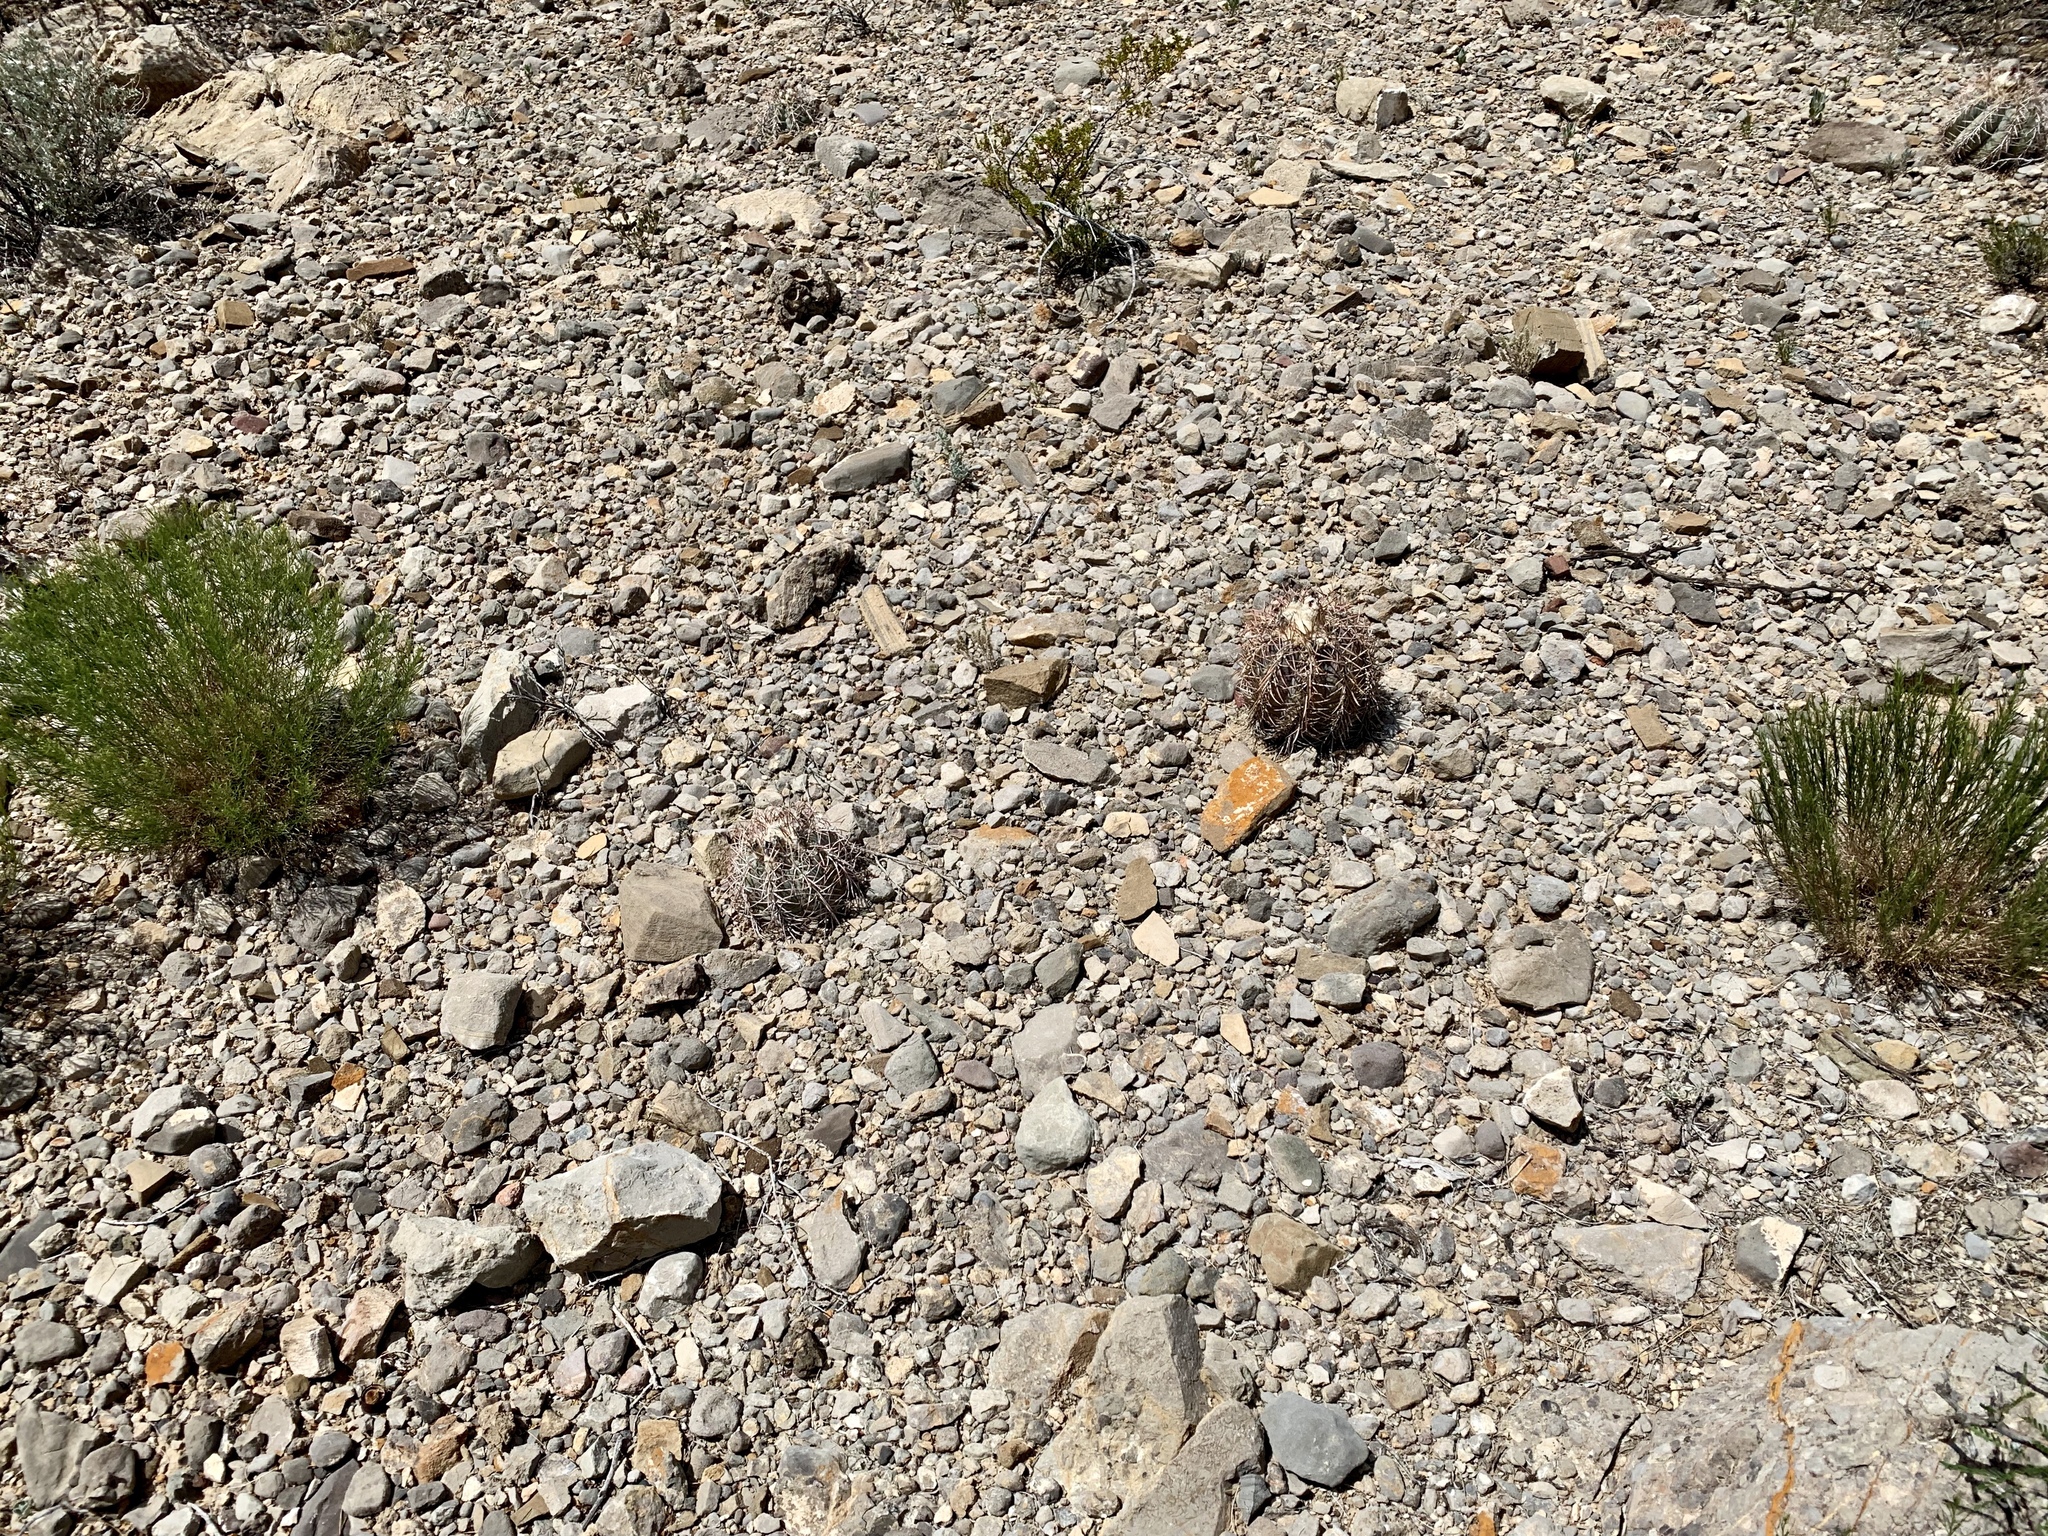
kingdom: Plantae
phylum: Tracheophyta
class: Magnoliopsida
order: Caryophyllales
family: Cactaceae
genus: Echinocactus
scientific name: Echinocactus horizonthalonius
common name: Devilshead
